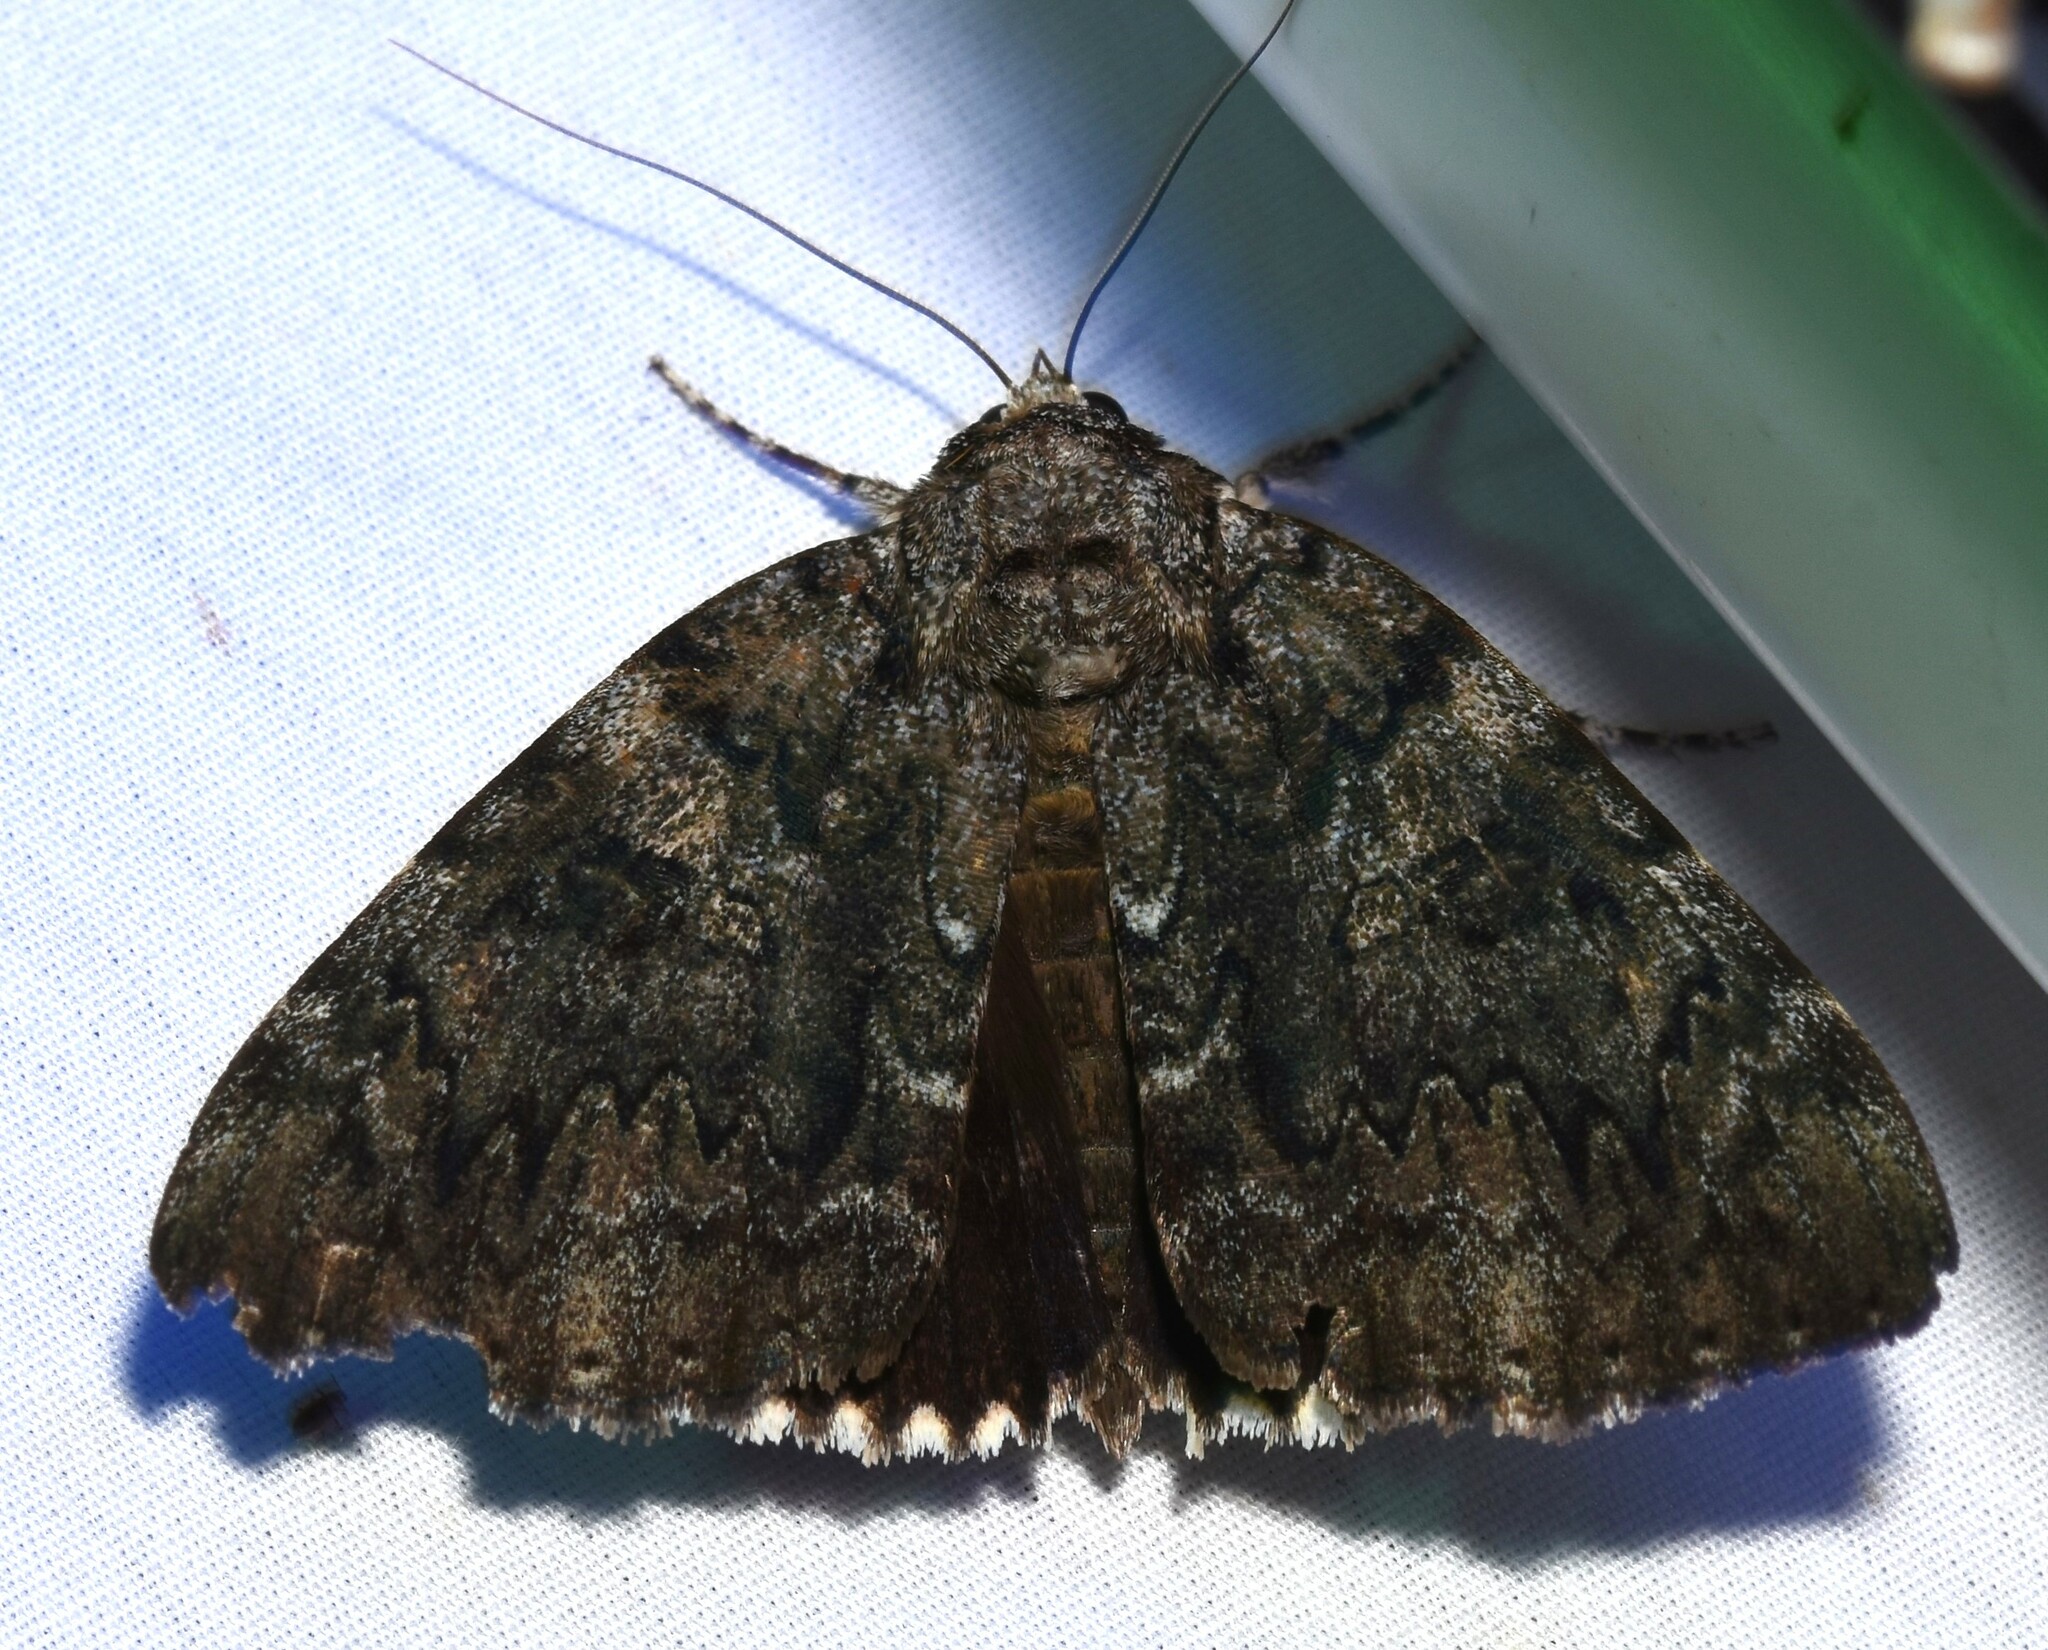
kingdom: Animalia
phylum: Arthropoda
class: Insecta
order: Lepidoptera
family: Erebidae
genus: Catocala
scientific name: Catocala lacrymosa
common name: Tearful underwing
